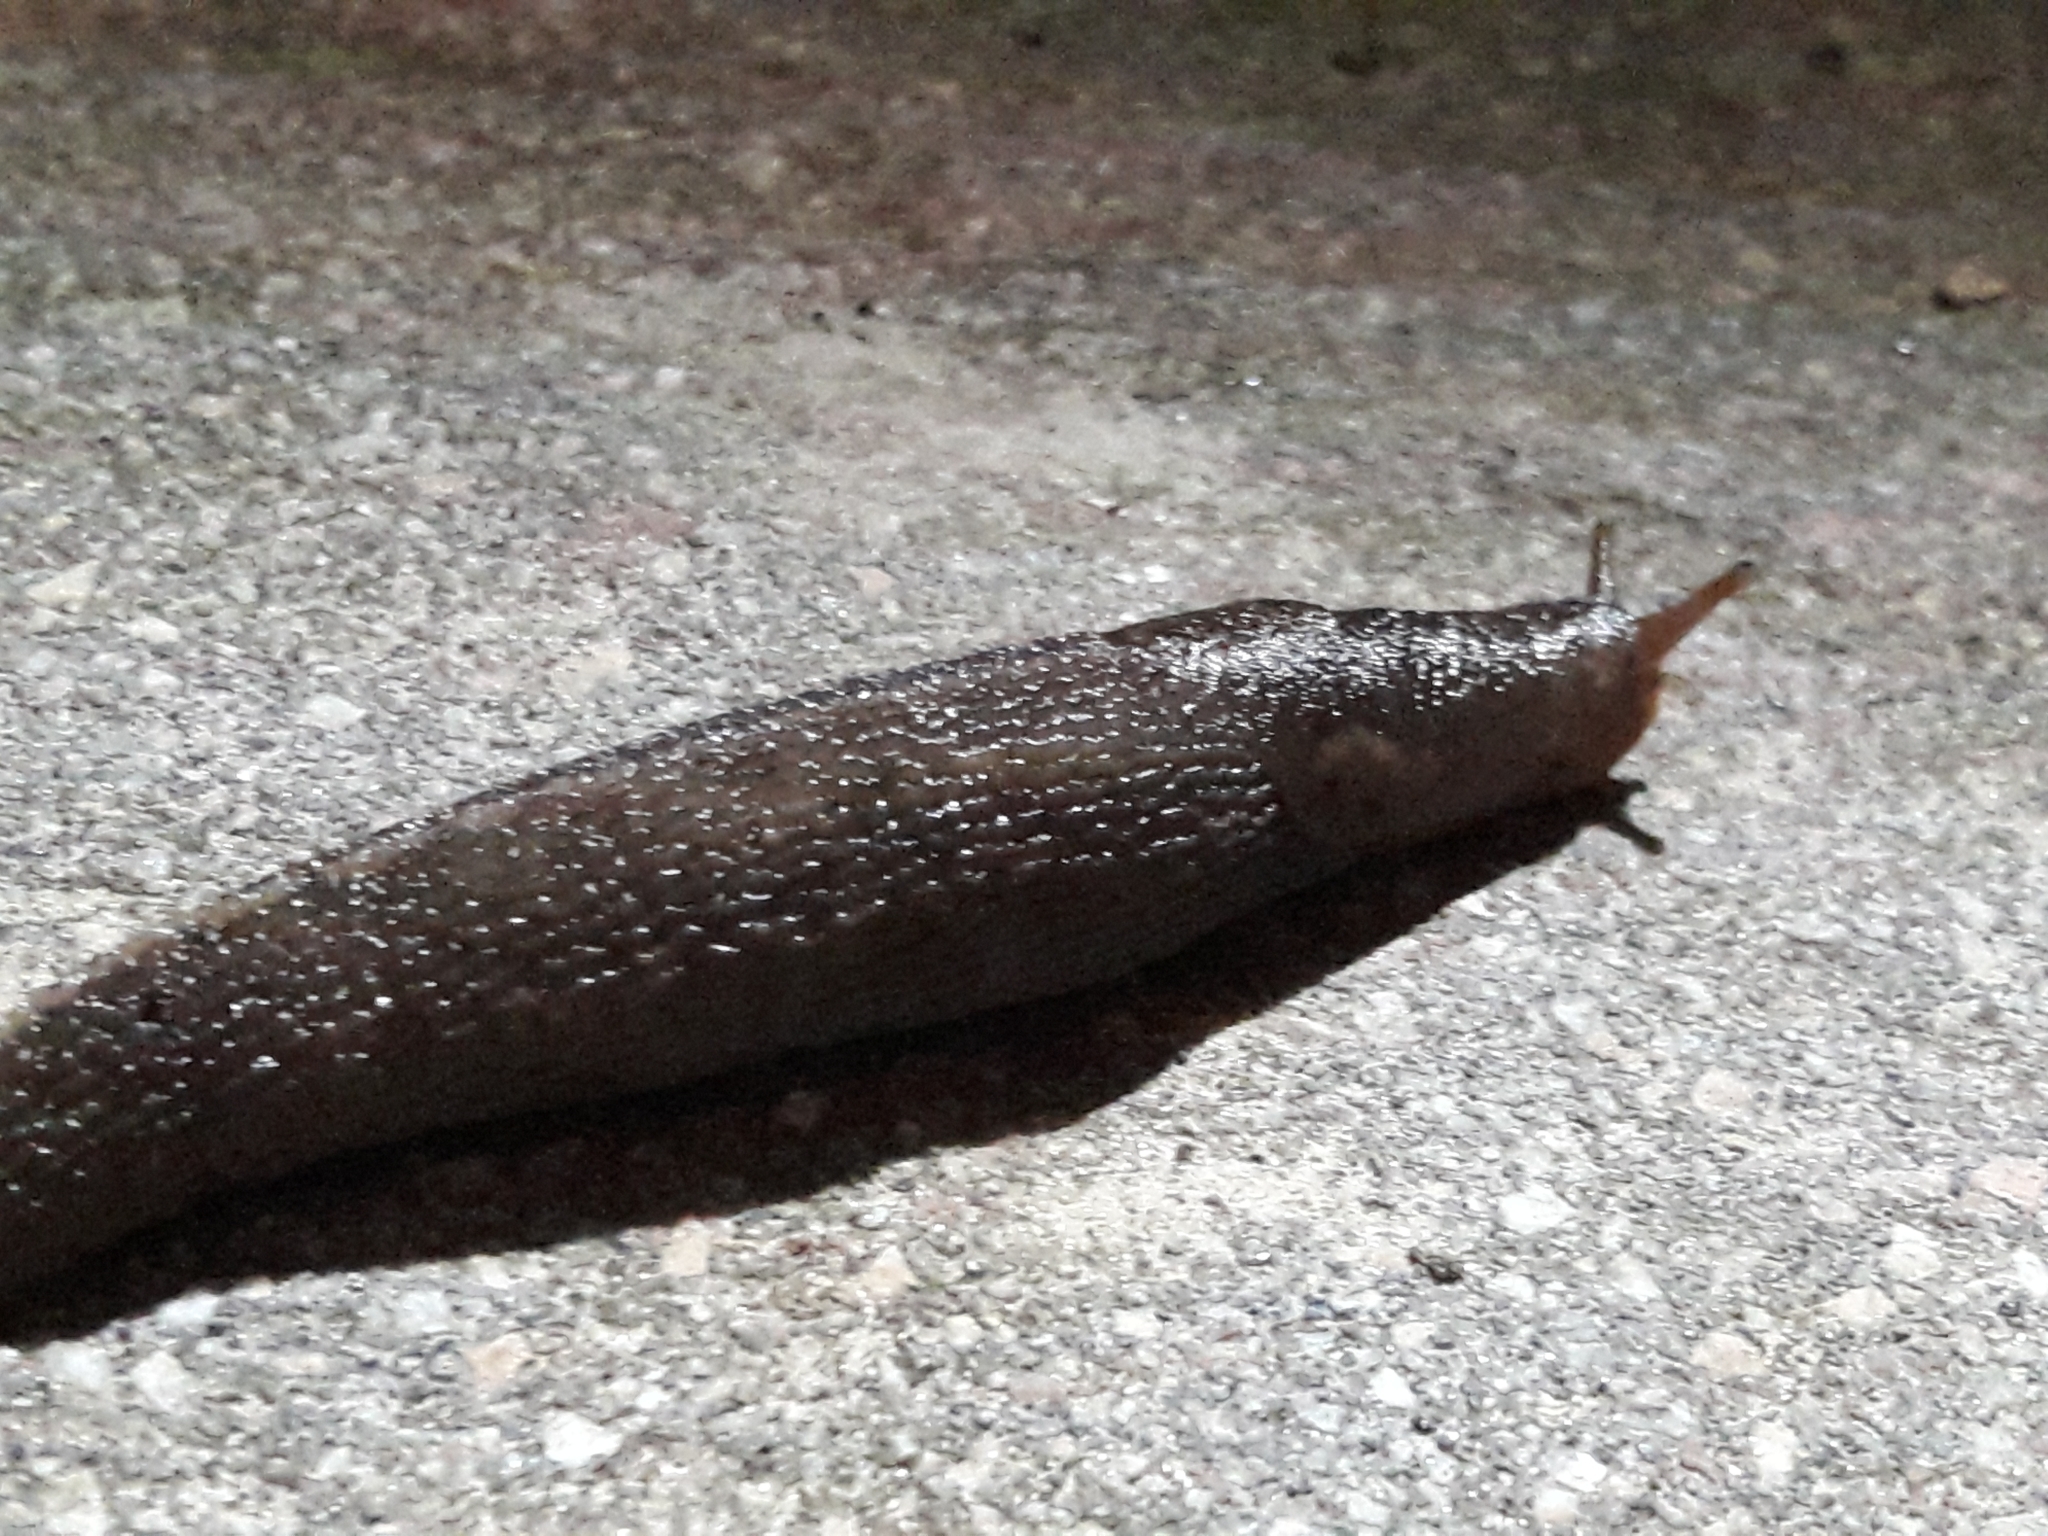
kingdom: Animalia
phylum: Mollusca
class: Gastropoda
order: Stylommatophora
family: Limacidae
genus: Limax
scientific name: Limax maximus
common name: Great grey slug
